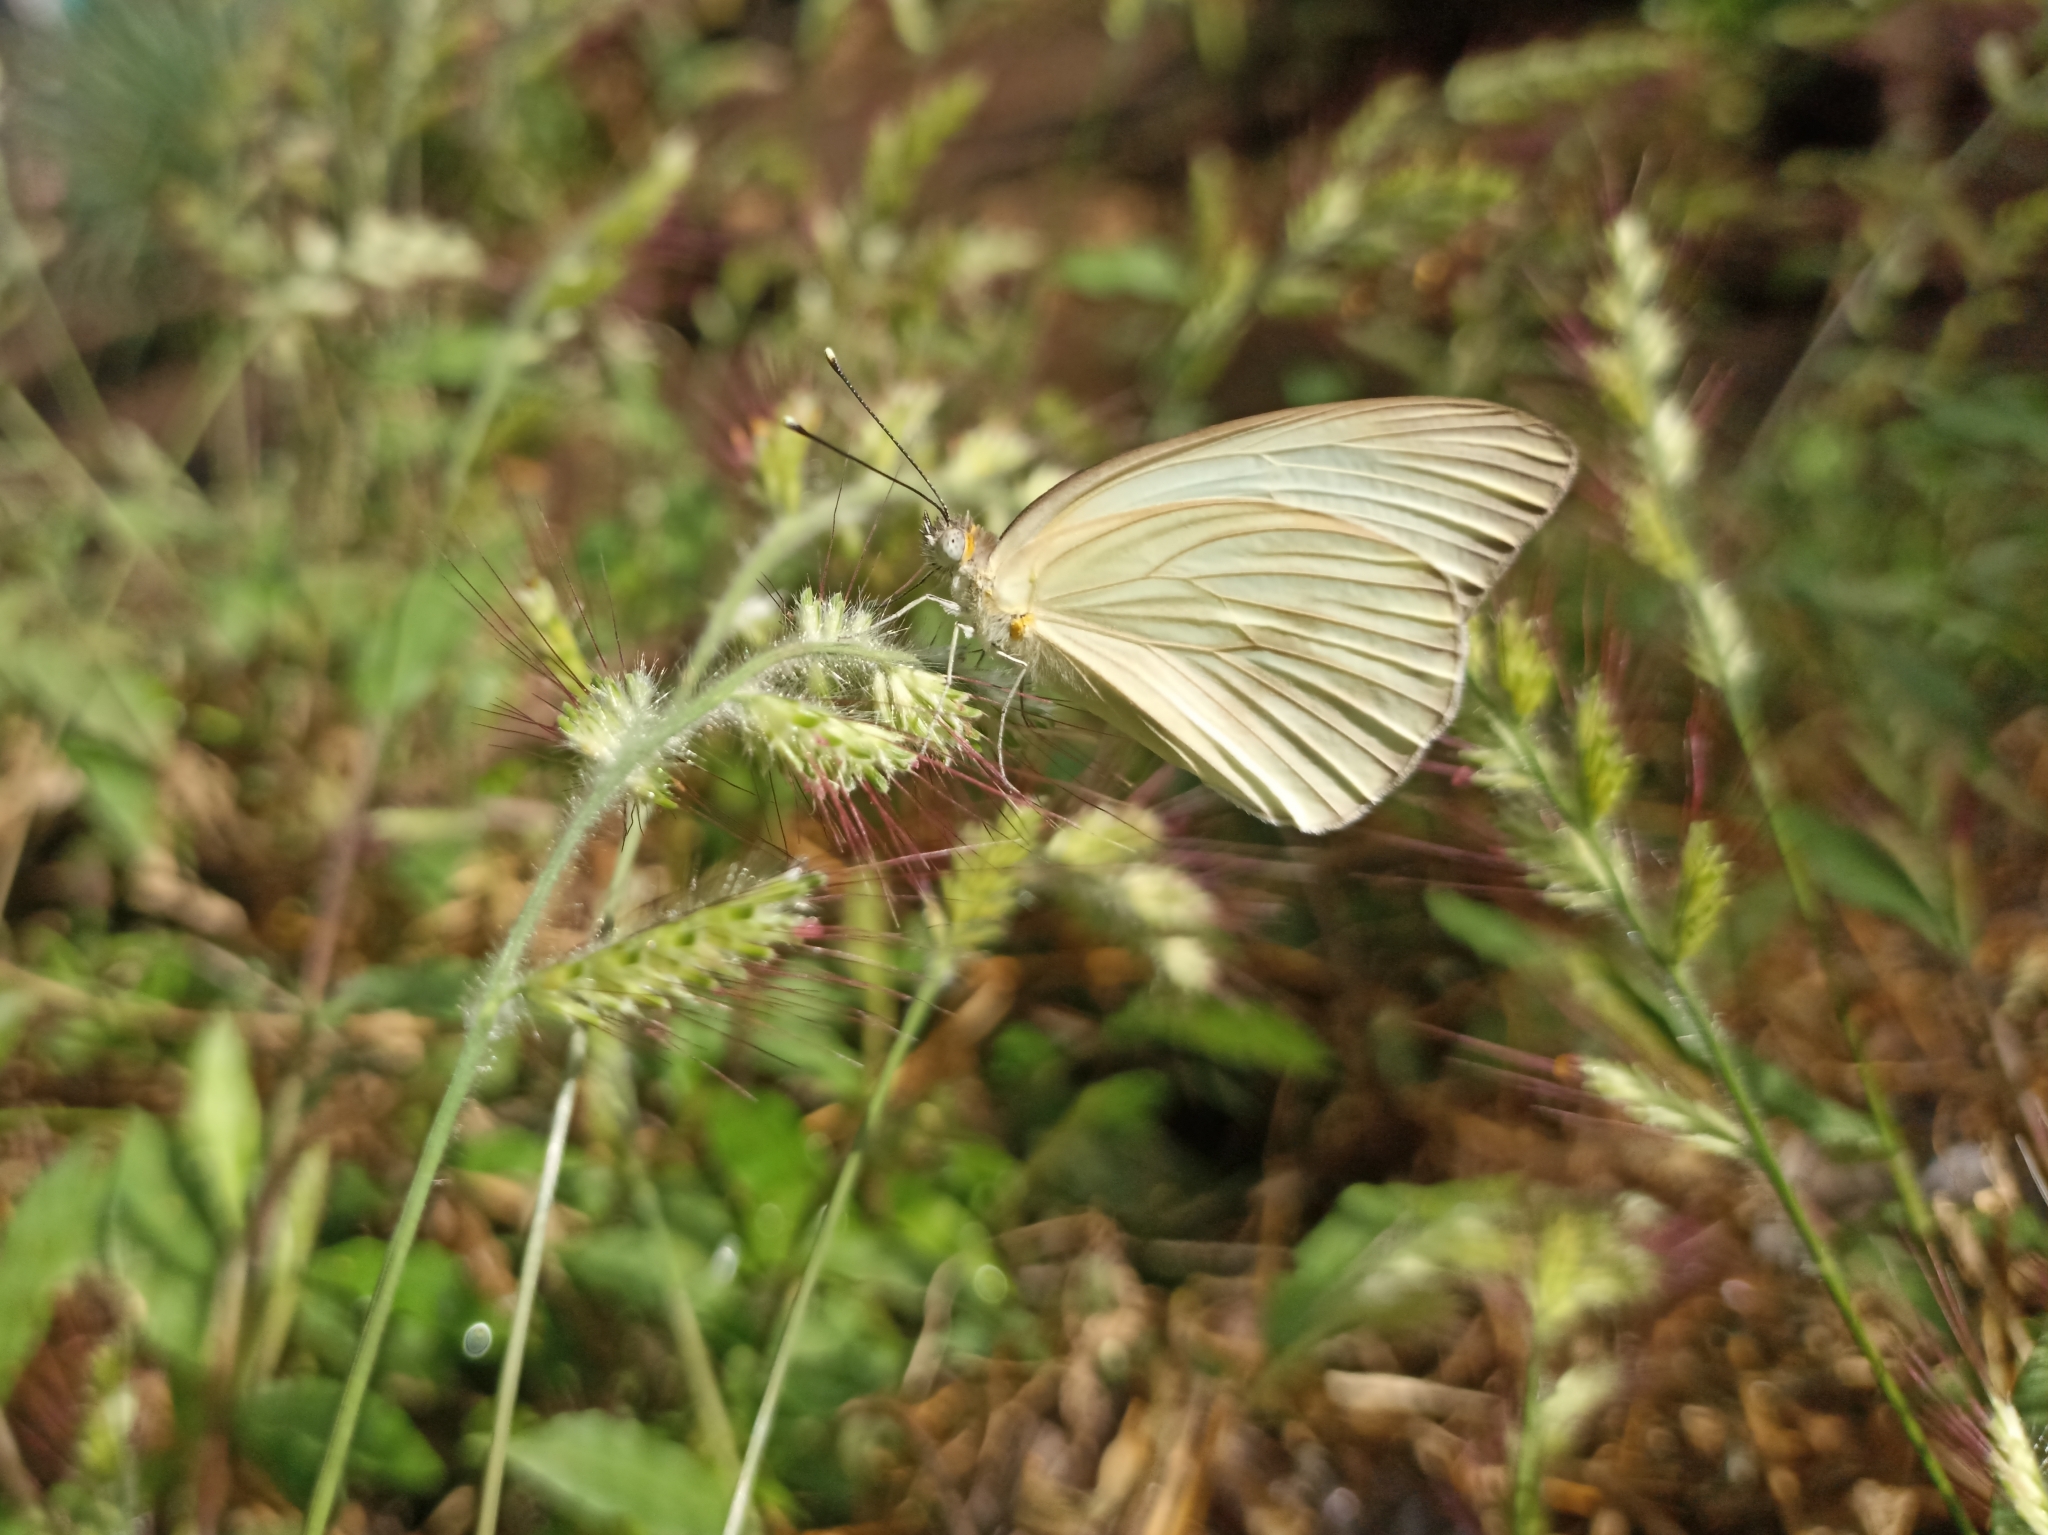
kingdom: Animalia
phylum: Arthropoda
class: Insecta
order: Lepidoptera
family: Pieridae
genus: Ascia
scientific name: Ascia monuste
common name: Great southern white
